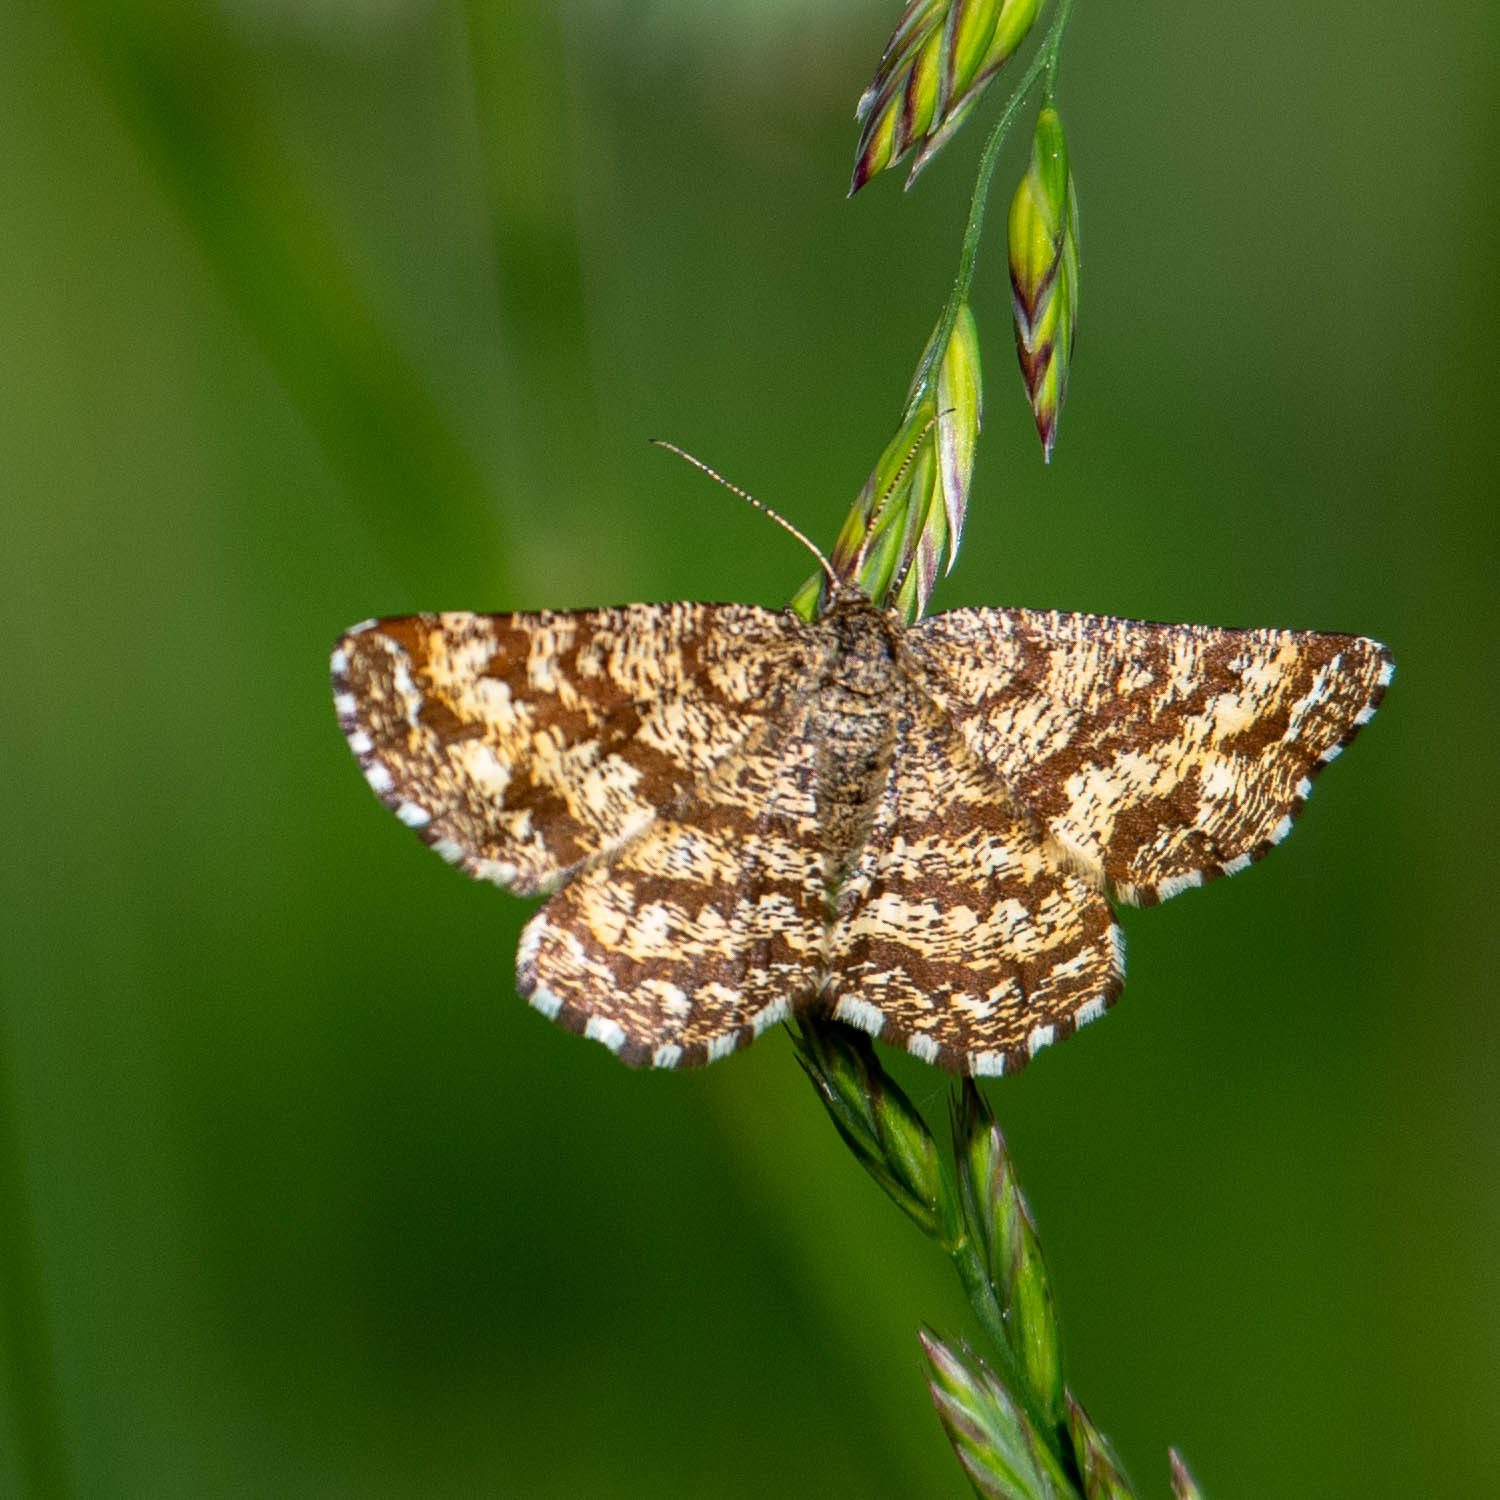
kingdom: Animalia
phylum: Arthropoda
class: Insecta
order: Lepidoptera
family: Geometridae
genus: Ematurga
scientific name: Ematurga atomaria
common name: Common heath
